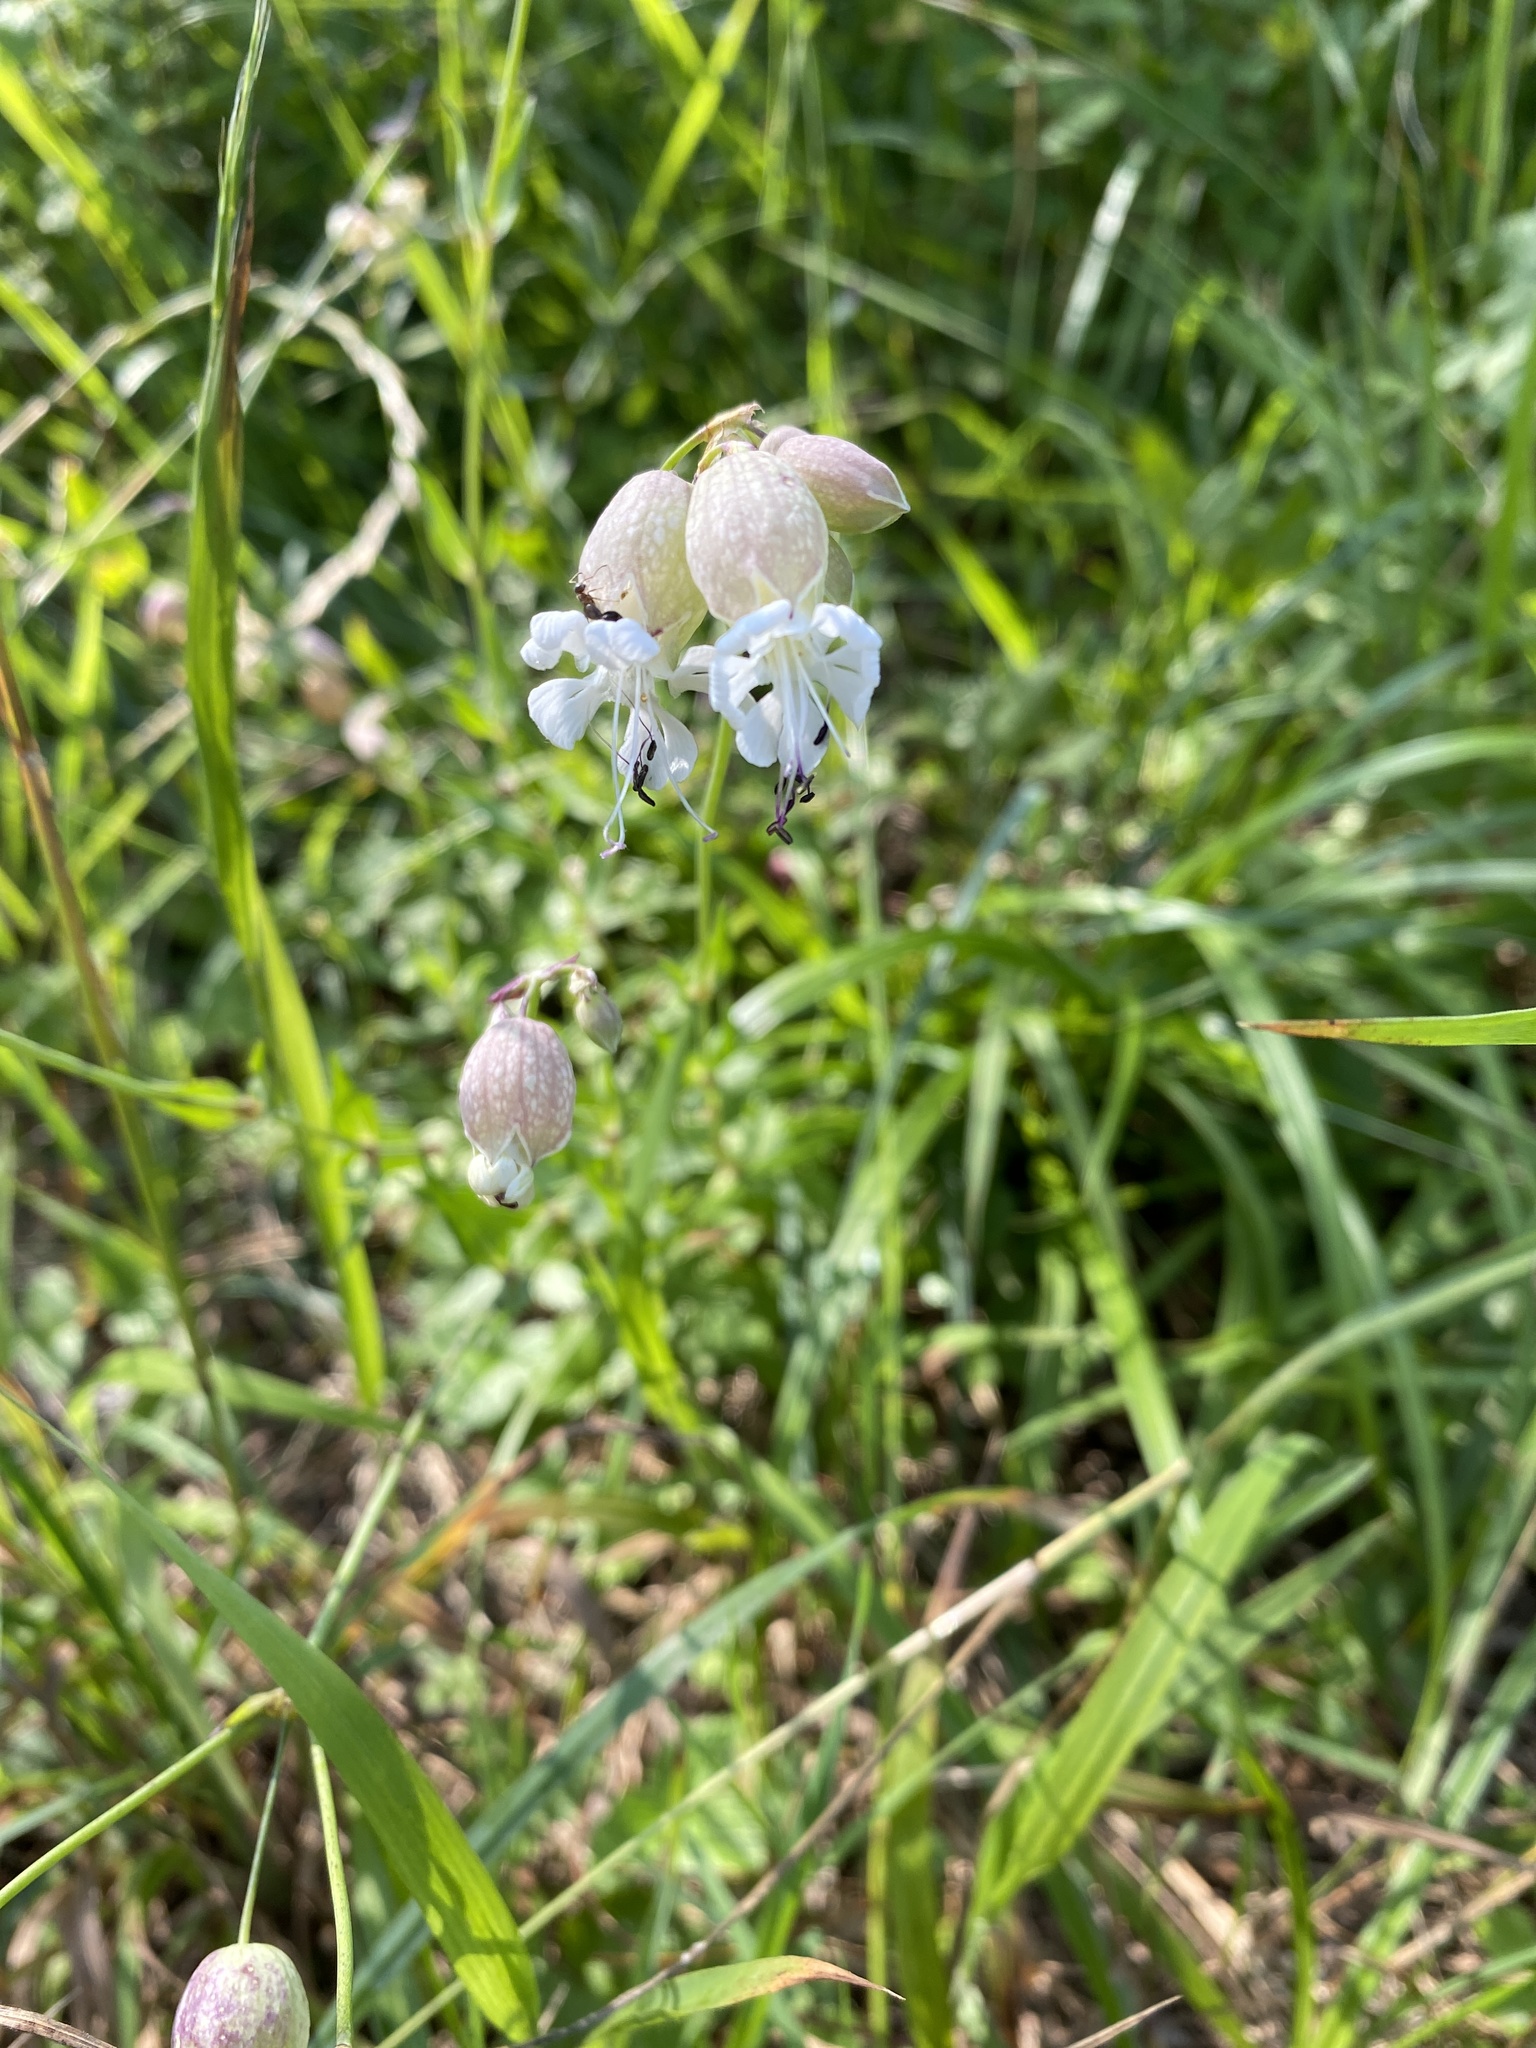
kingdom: Plantae
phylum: Tracheophyta
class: Magnoliopsida
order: Caryophyllales
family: Caryophyllaceae
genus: Silene
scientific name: Silene vulgaris
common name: Bladder campion
